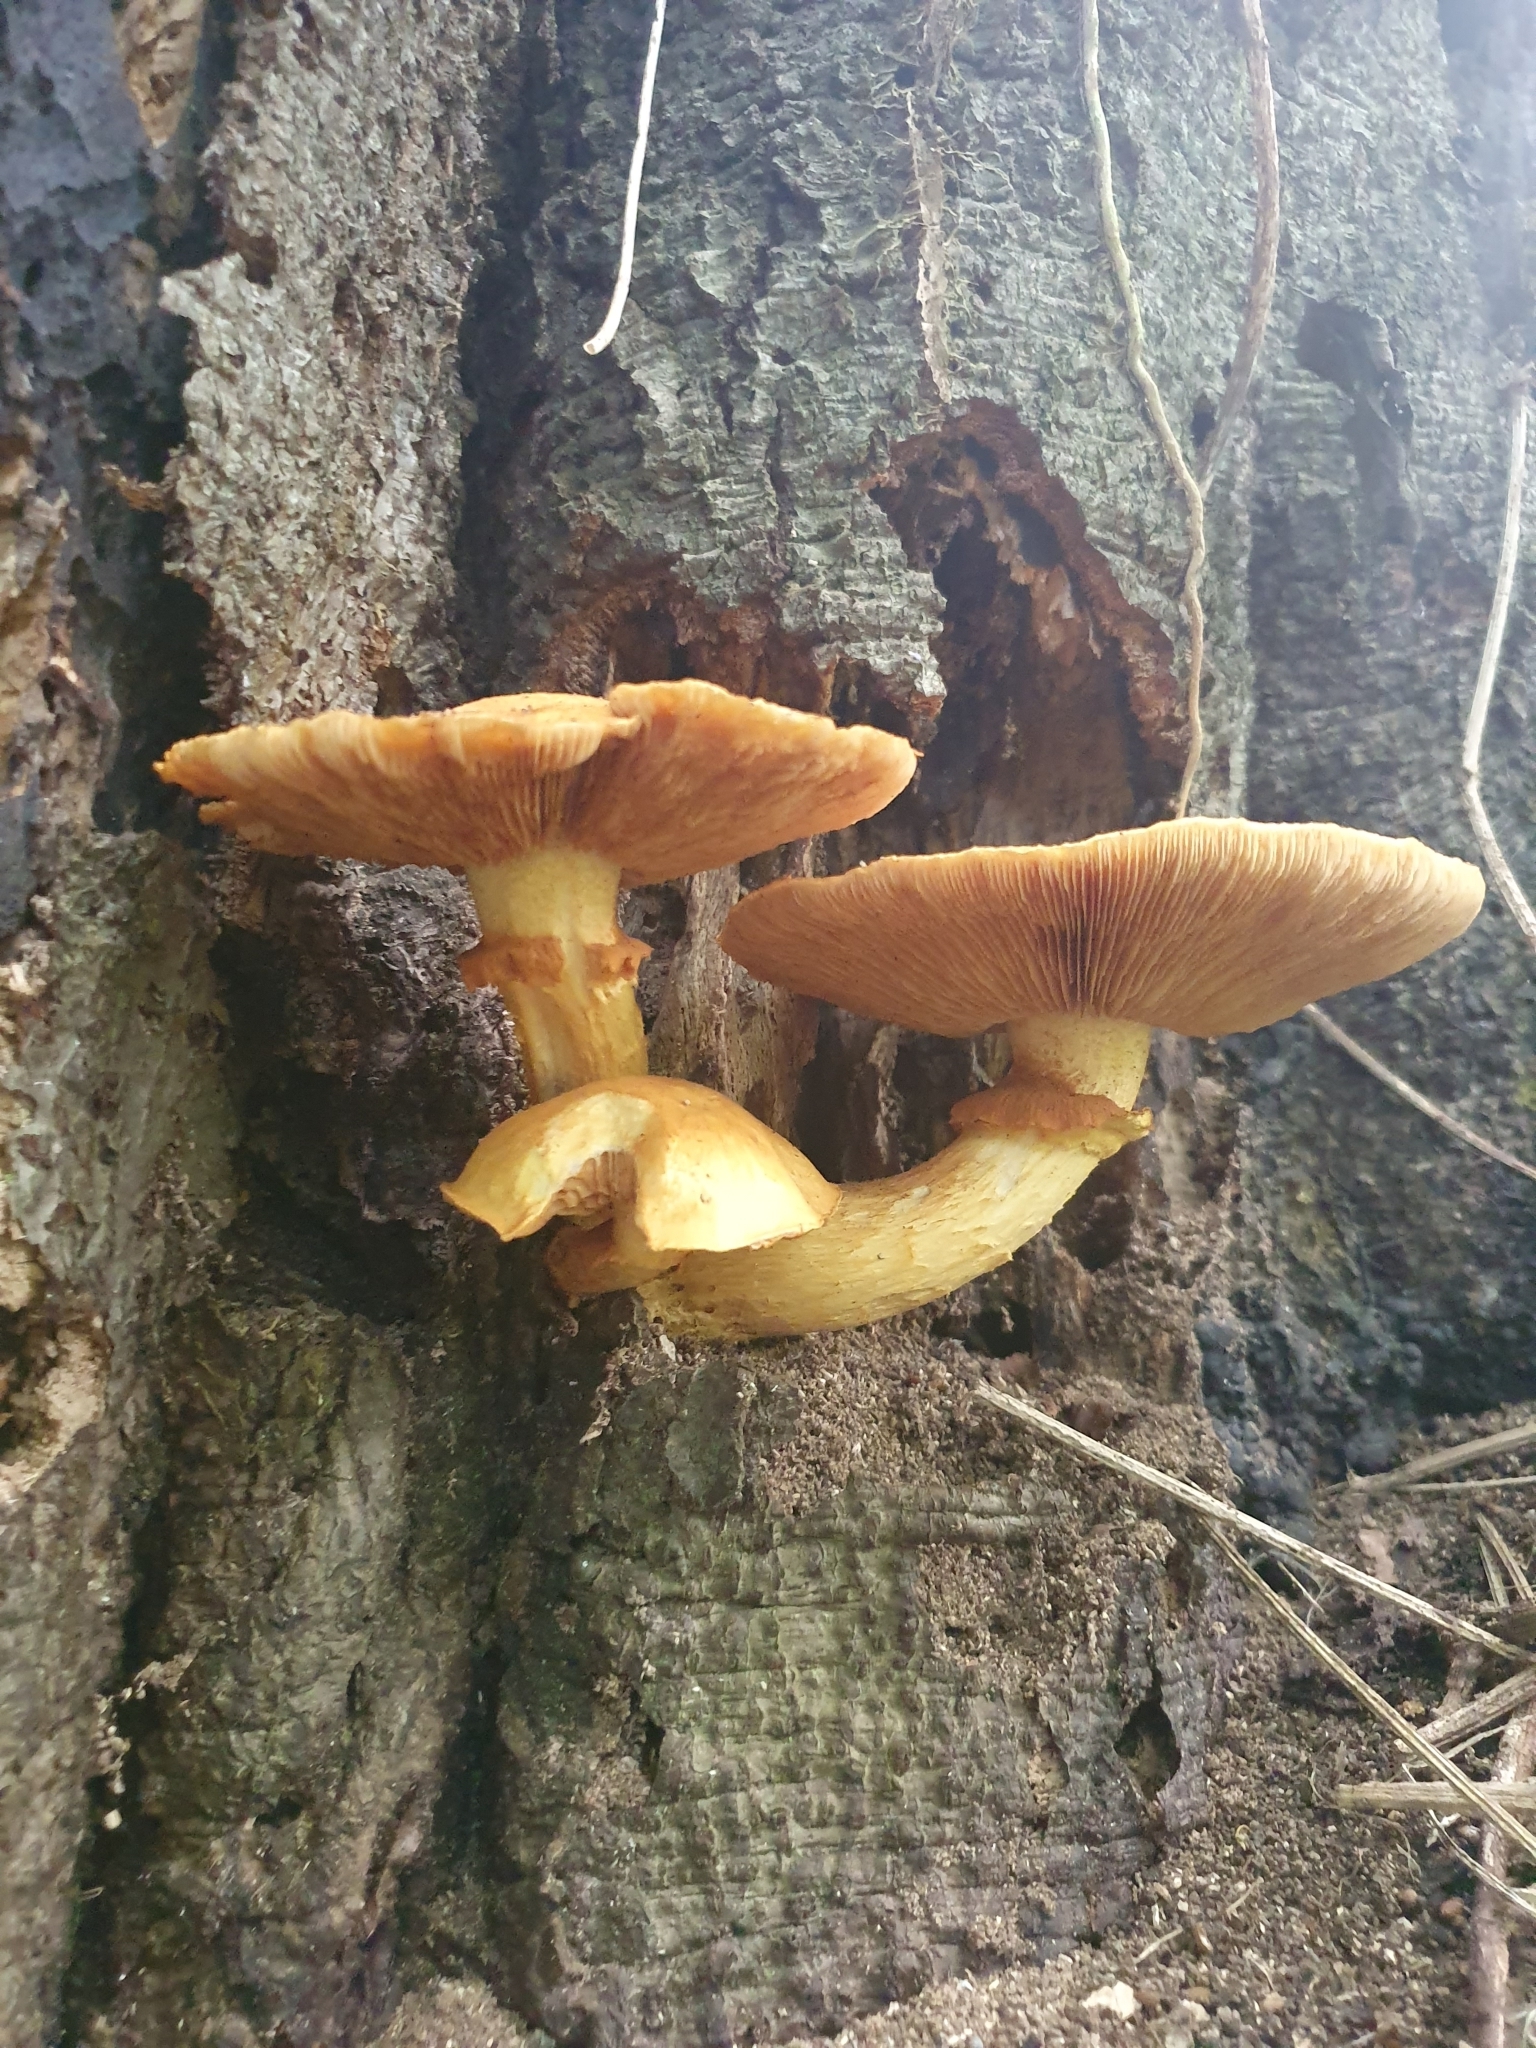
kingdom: Fungi
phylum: Basidiomycota
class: Agaricomycetes
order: Agaricales
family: Hymenogastraceae
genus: Gymnopilus
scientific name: Gymnopilus junonius
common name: Spectacular rustgill
